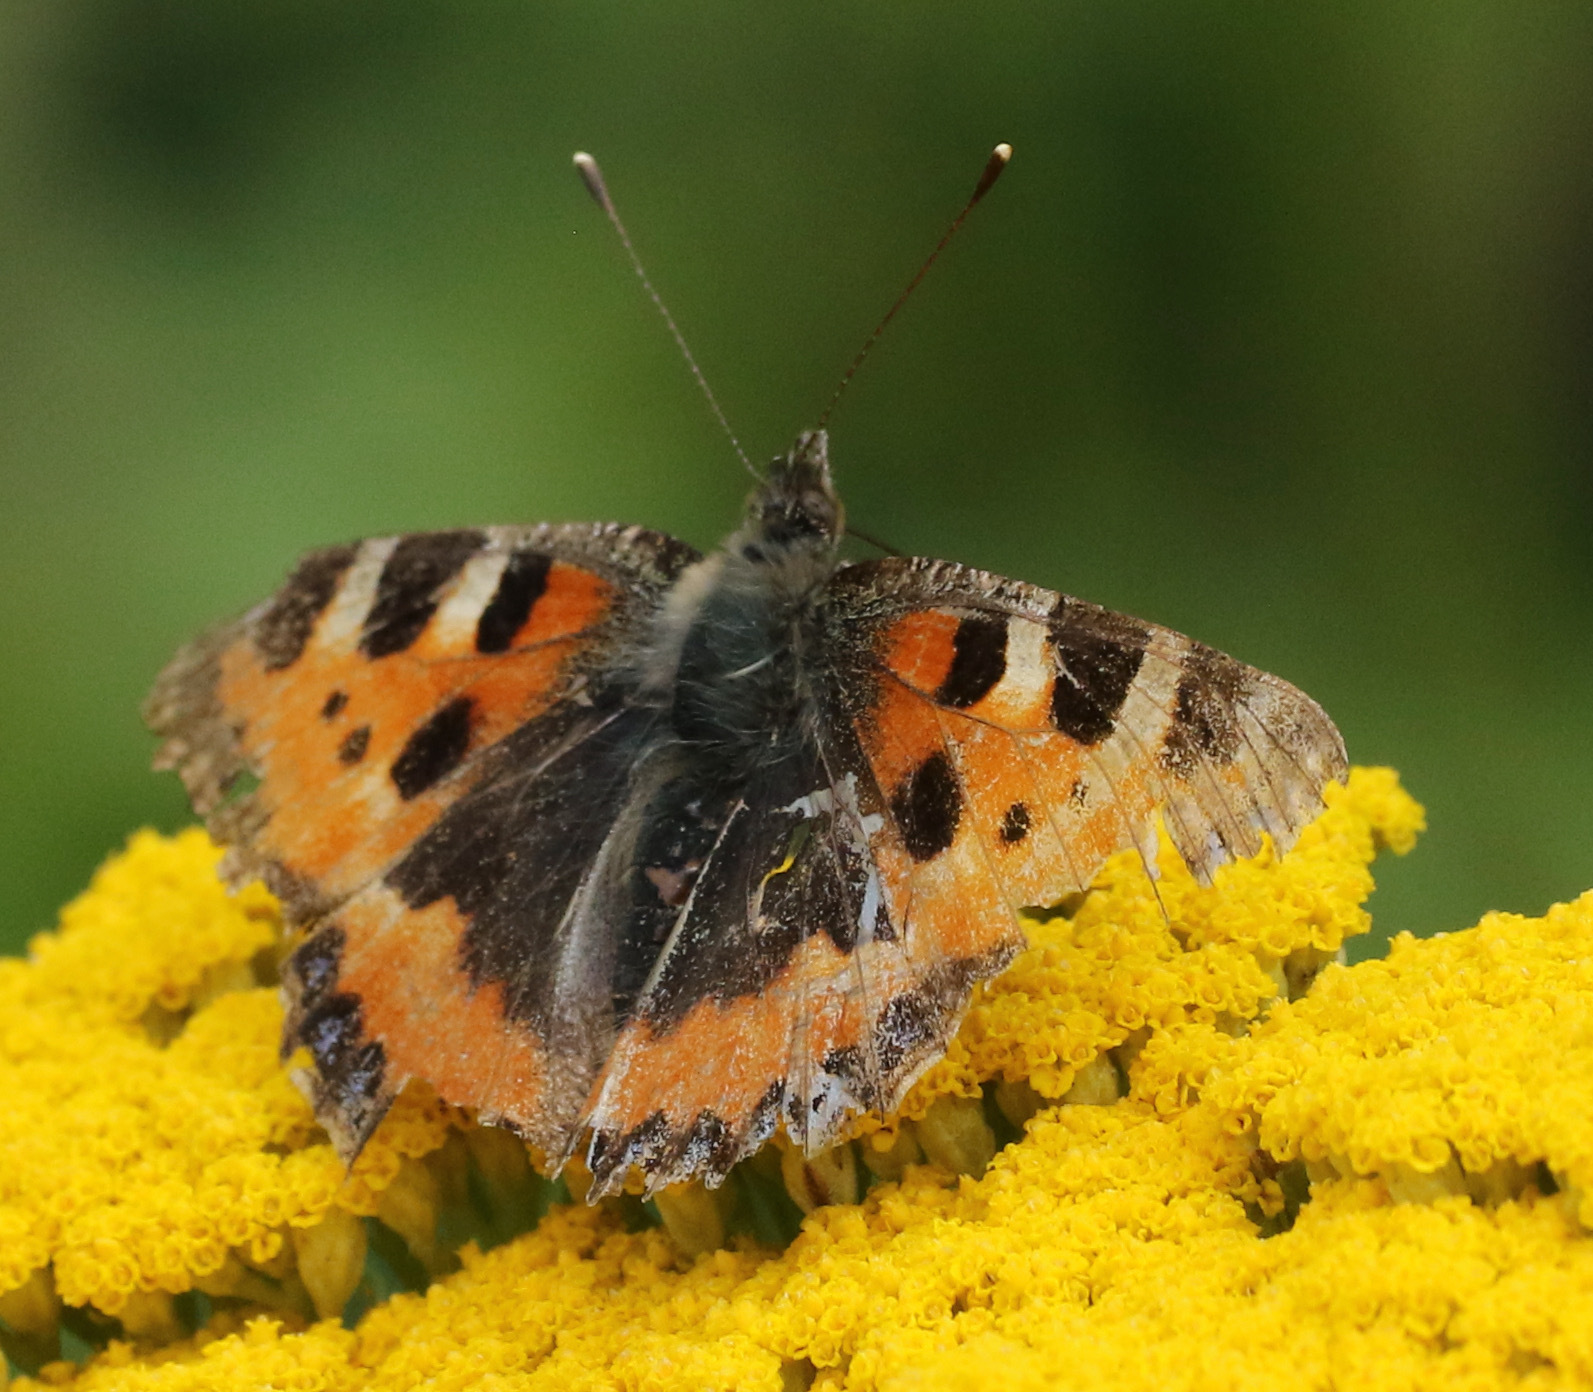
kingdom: Animalia
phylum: Arthropoda
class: Insecta
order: Lepidoptera
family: Nymphalidae
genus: Aglais
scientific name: Aglais urticae
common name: Small tortoiseshell
